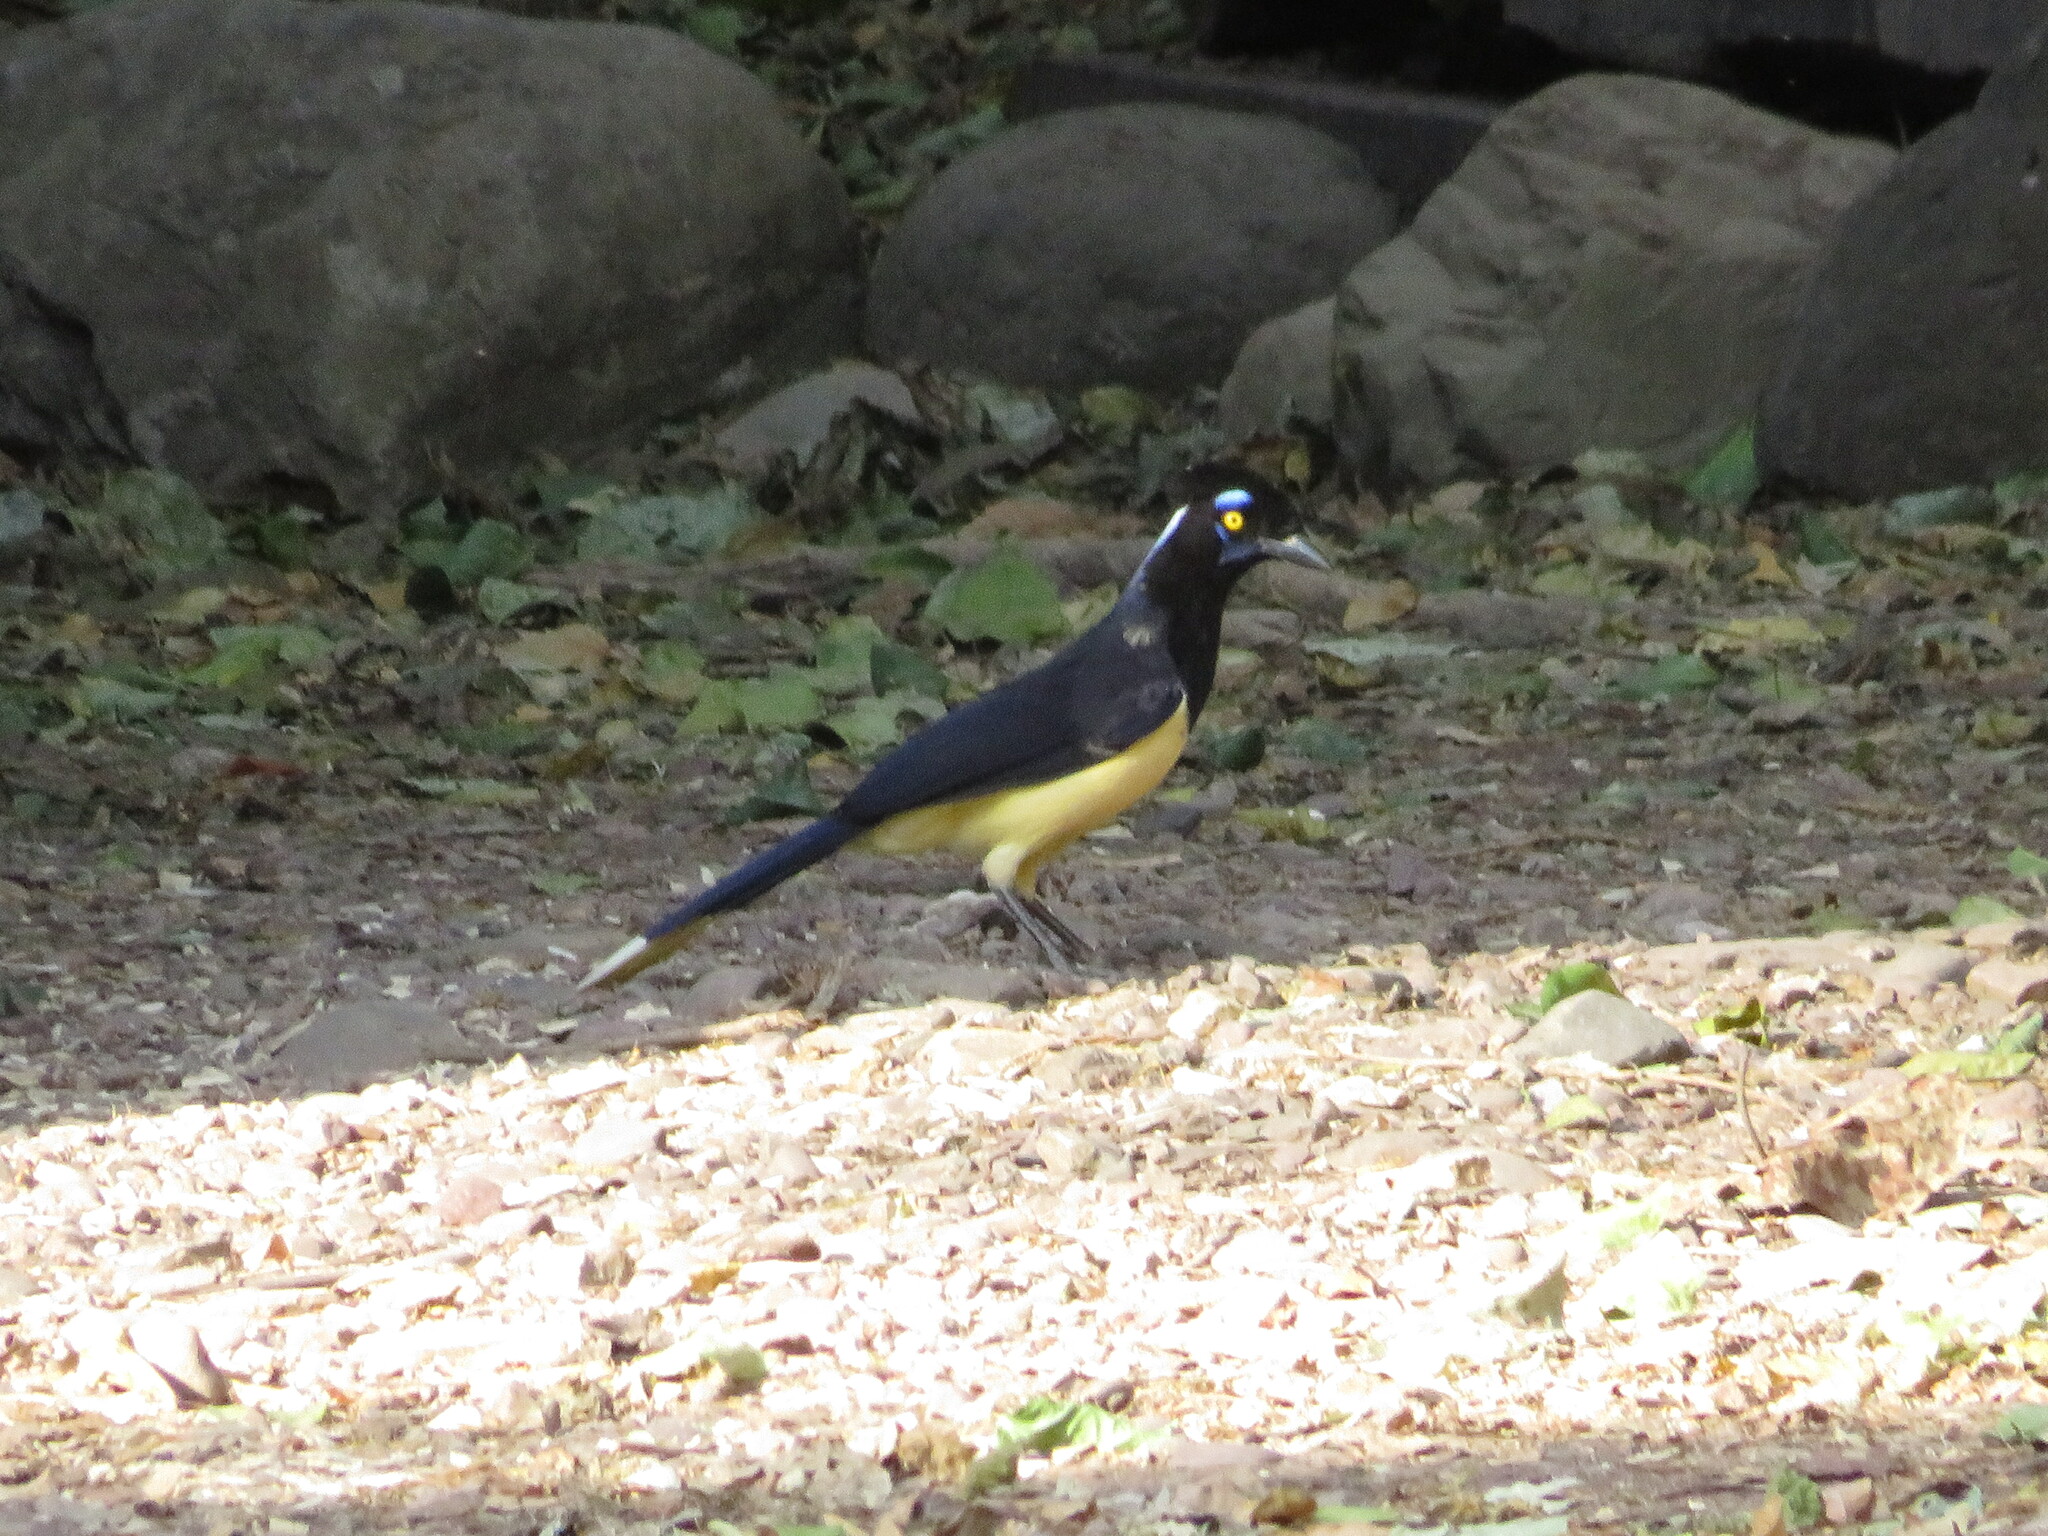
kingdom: Animalia
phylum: Chordata
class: Aves
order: Passeriformes
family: Corvidae
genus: Cyanocorax
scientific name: Cyanocorax chrysops
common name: Plush-crested jay
